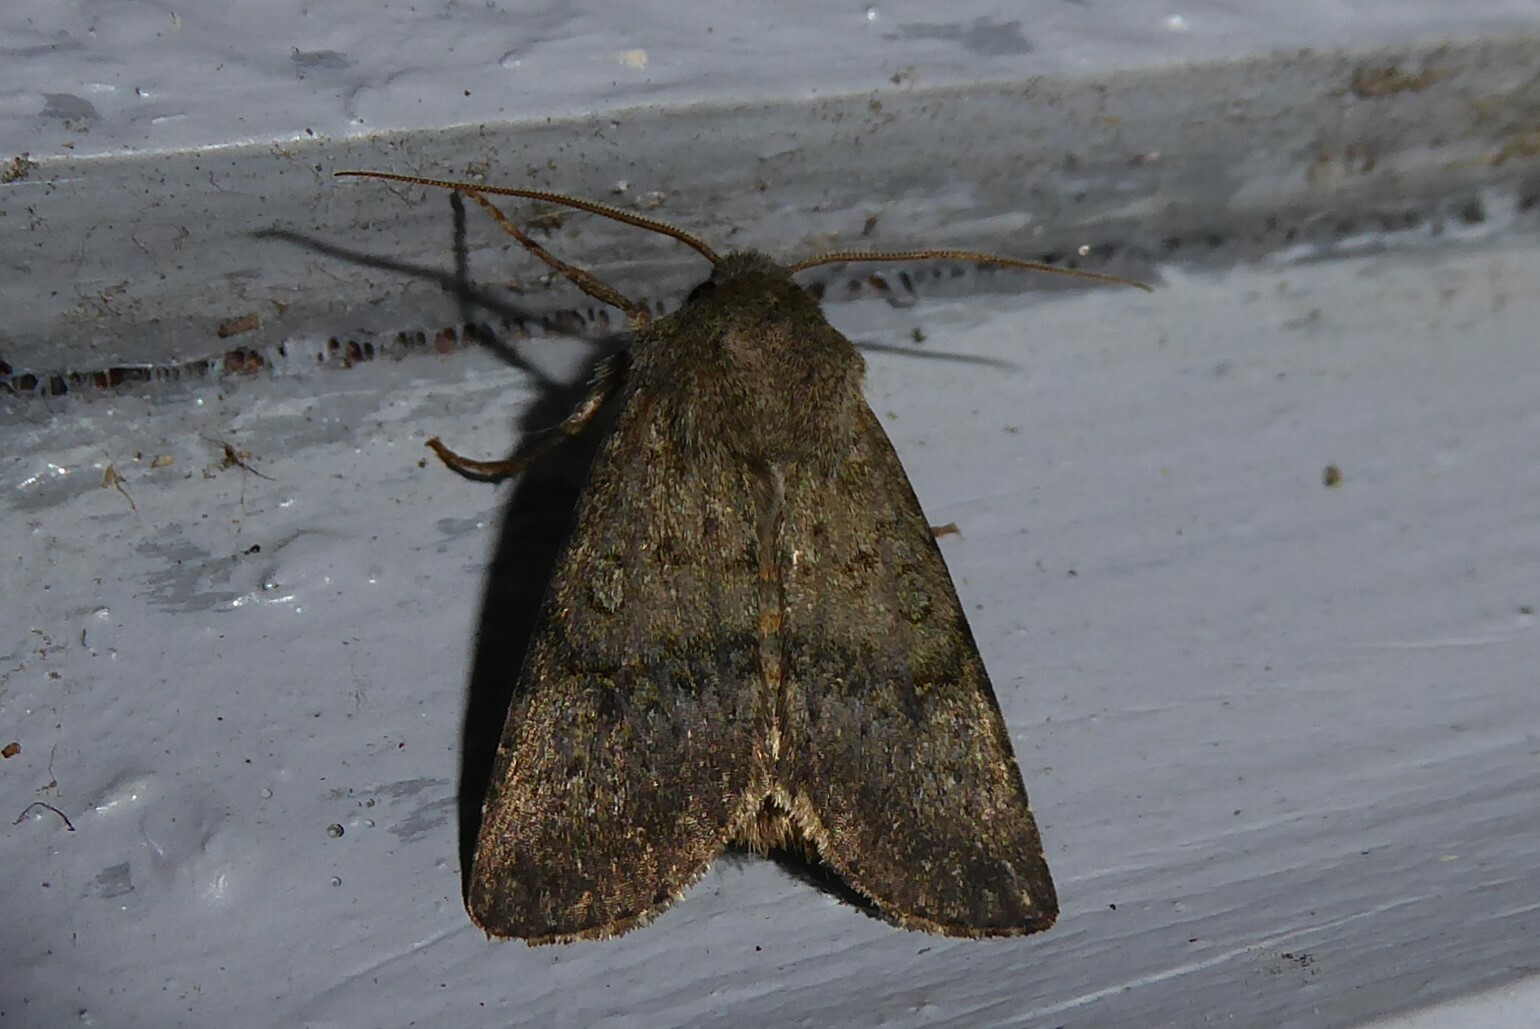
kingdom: Animalia
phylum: Arthropoda
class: Insecta
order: Lepidoptera
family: Noctuidae
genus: Ichneutica
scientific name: Ichneutica moderata
